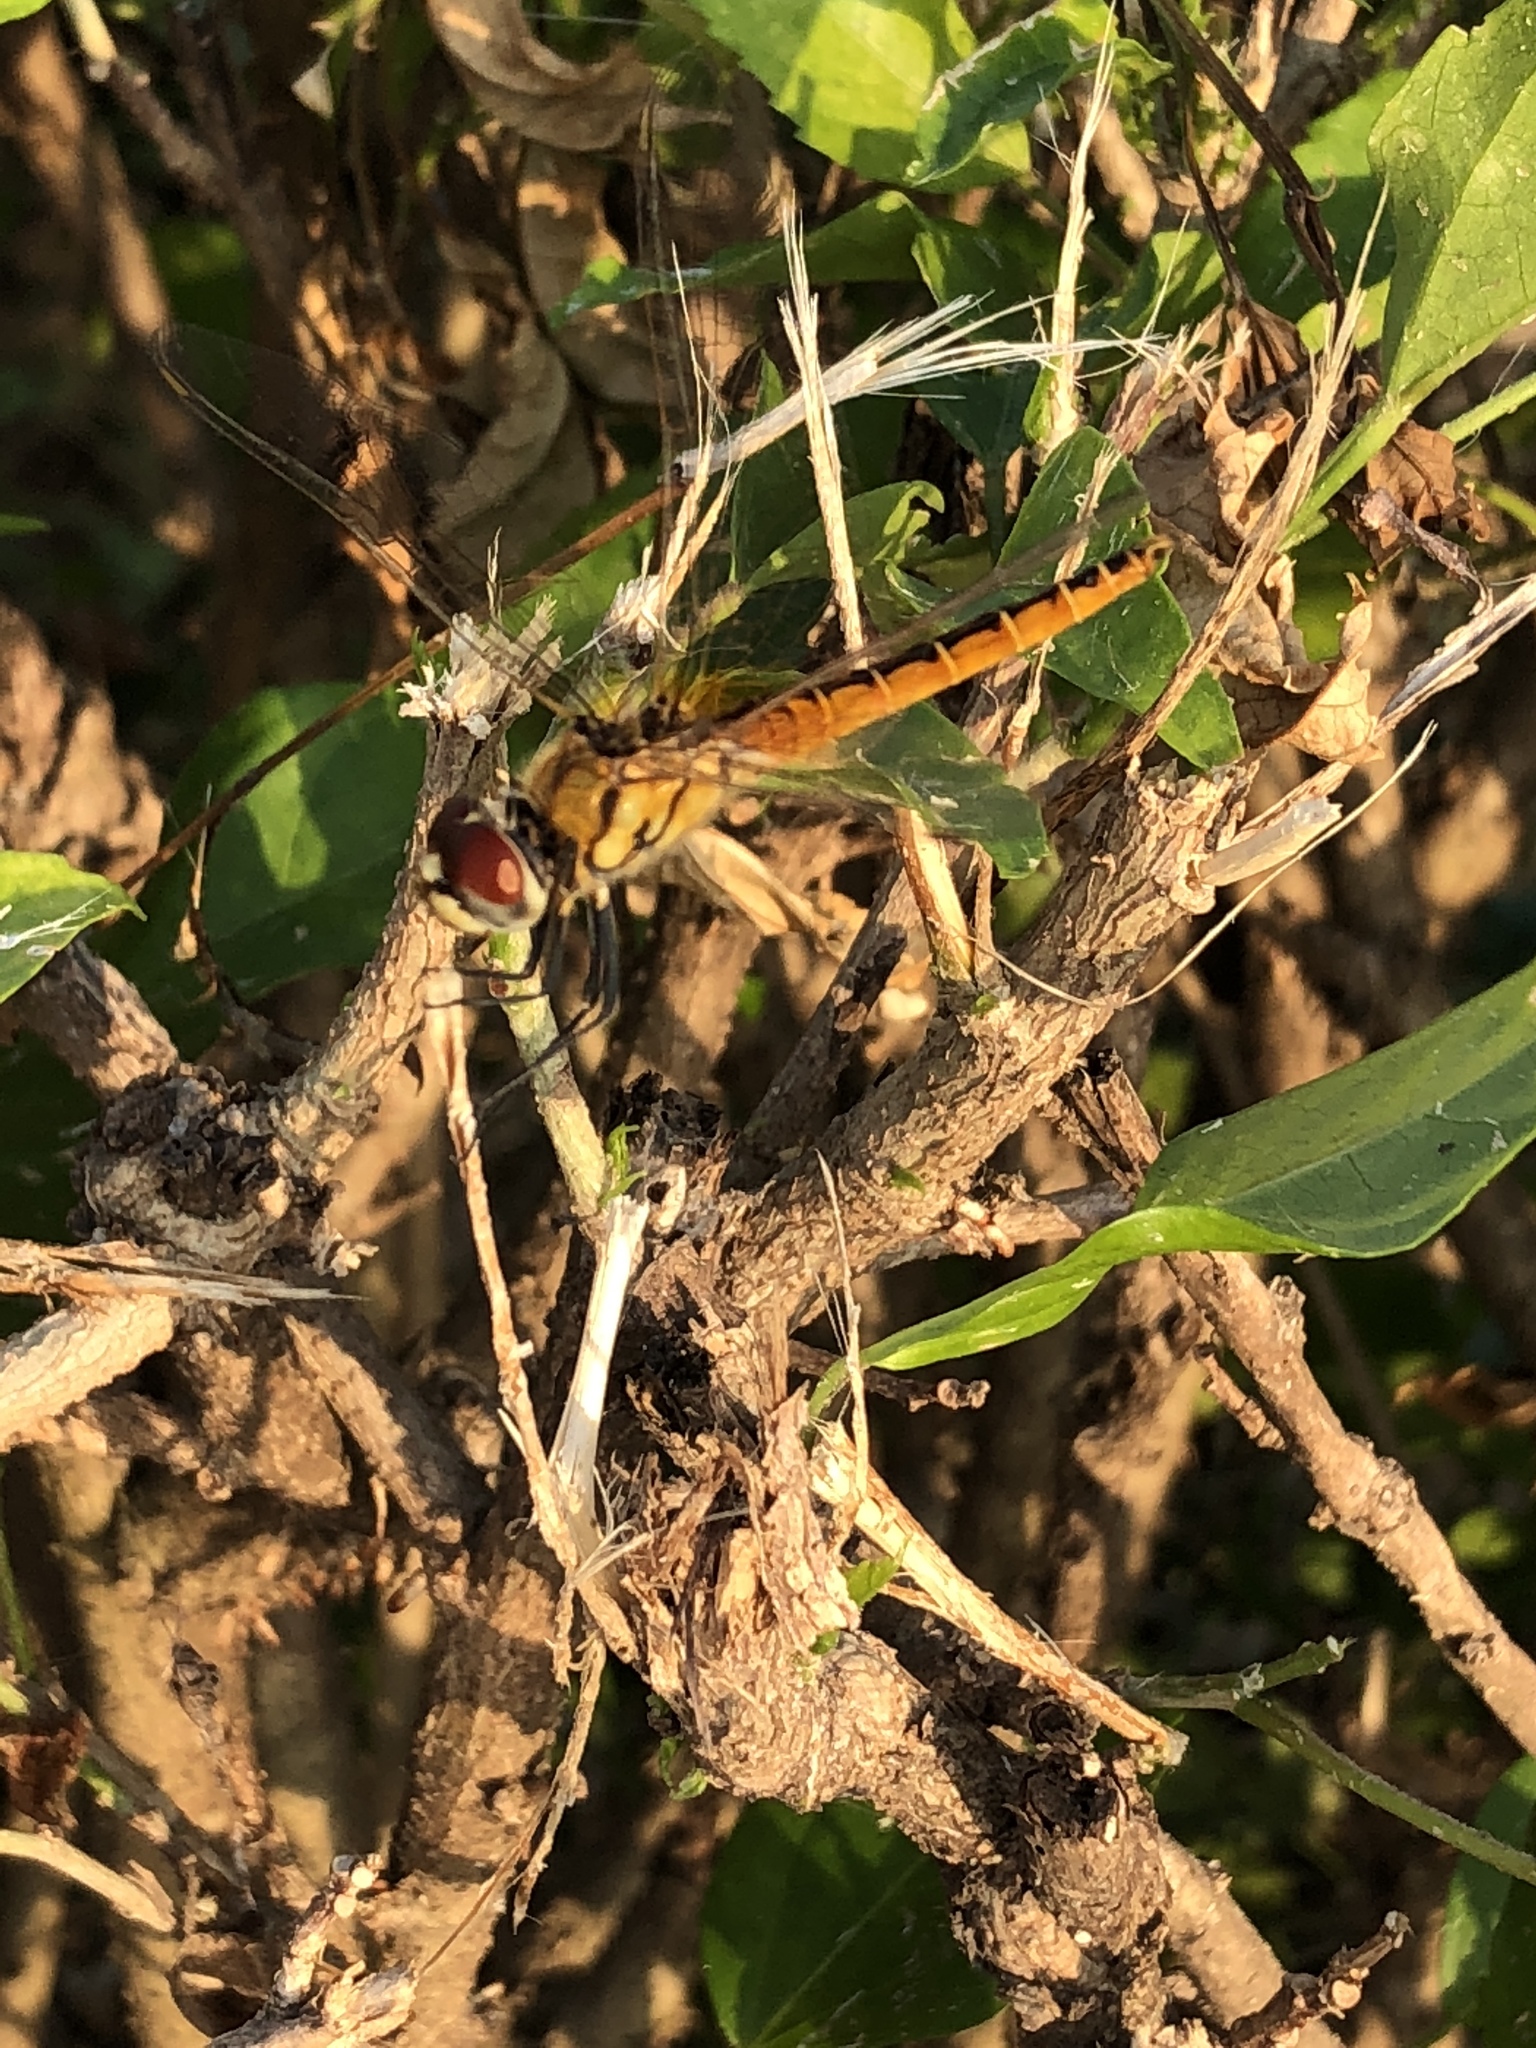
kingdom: Animalia
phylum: Arthropoda
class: Insecta
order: Odonata
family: Libellulidae
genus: Macrodiplax
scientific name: Macrodiplax cora
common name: Coastal glider
